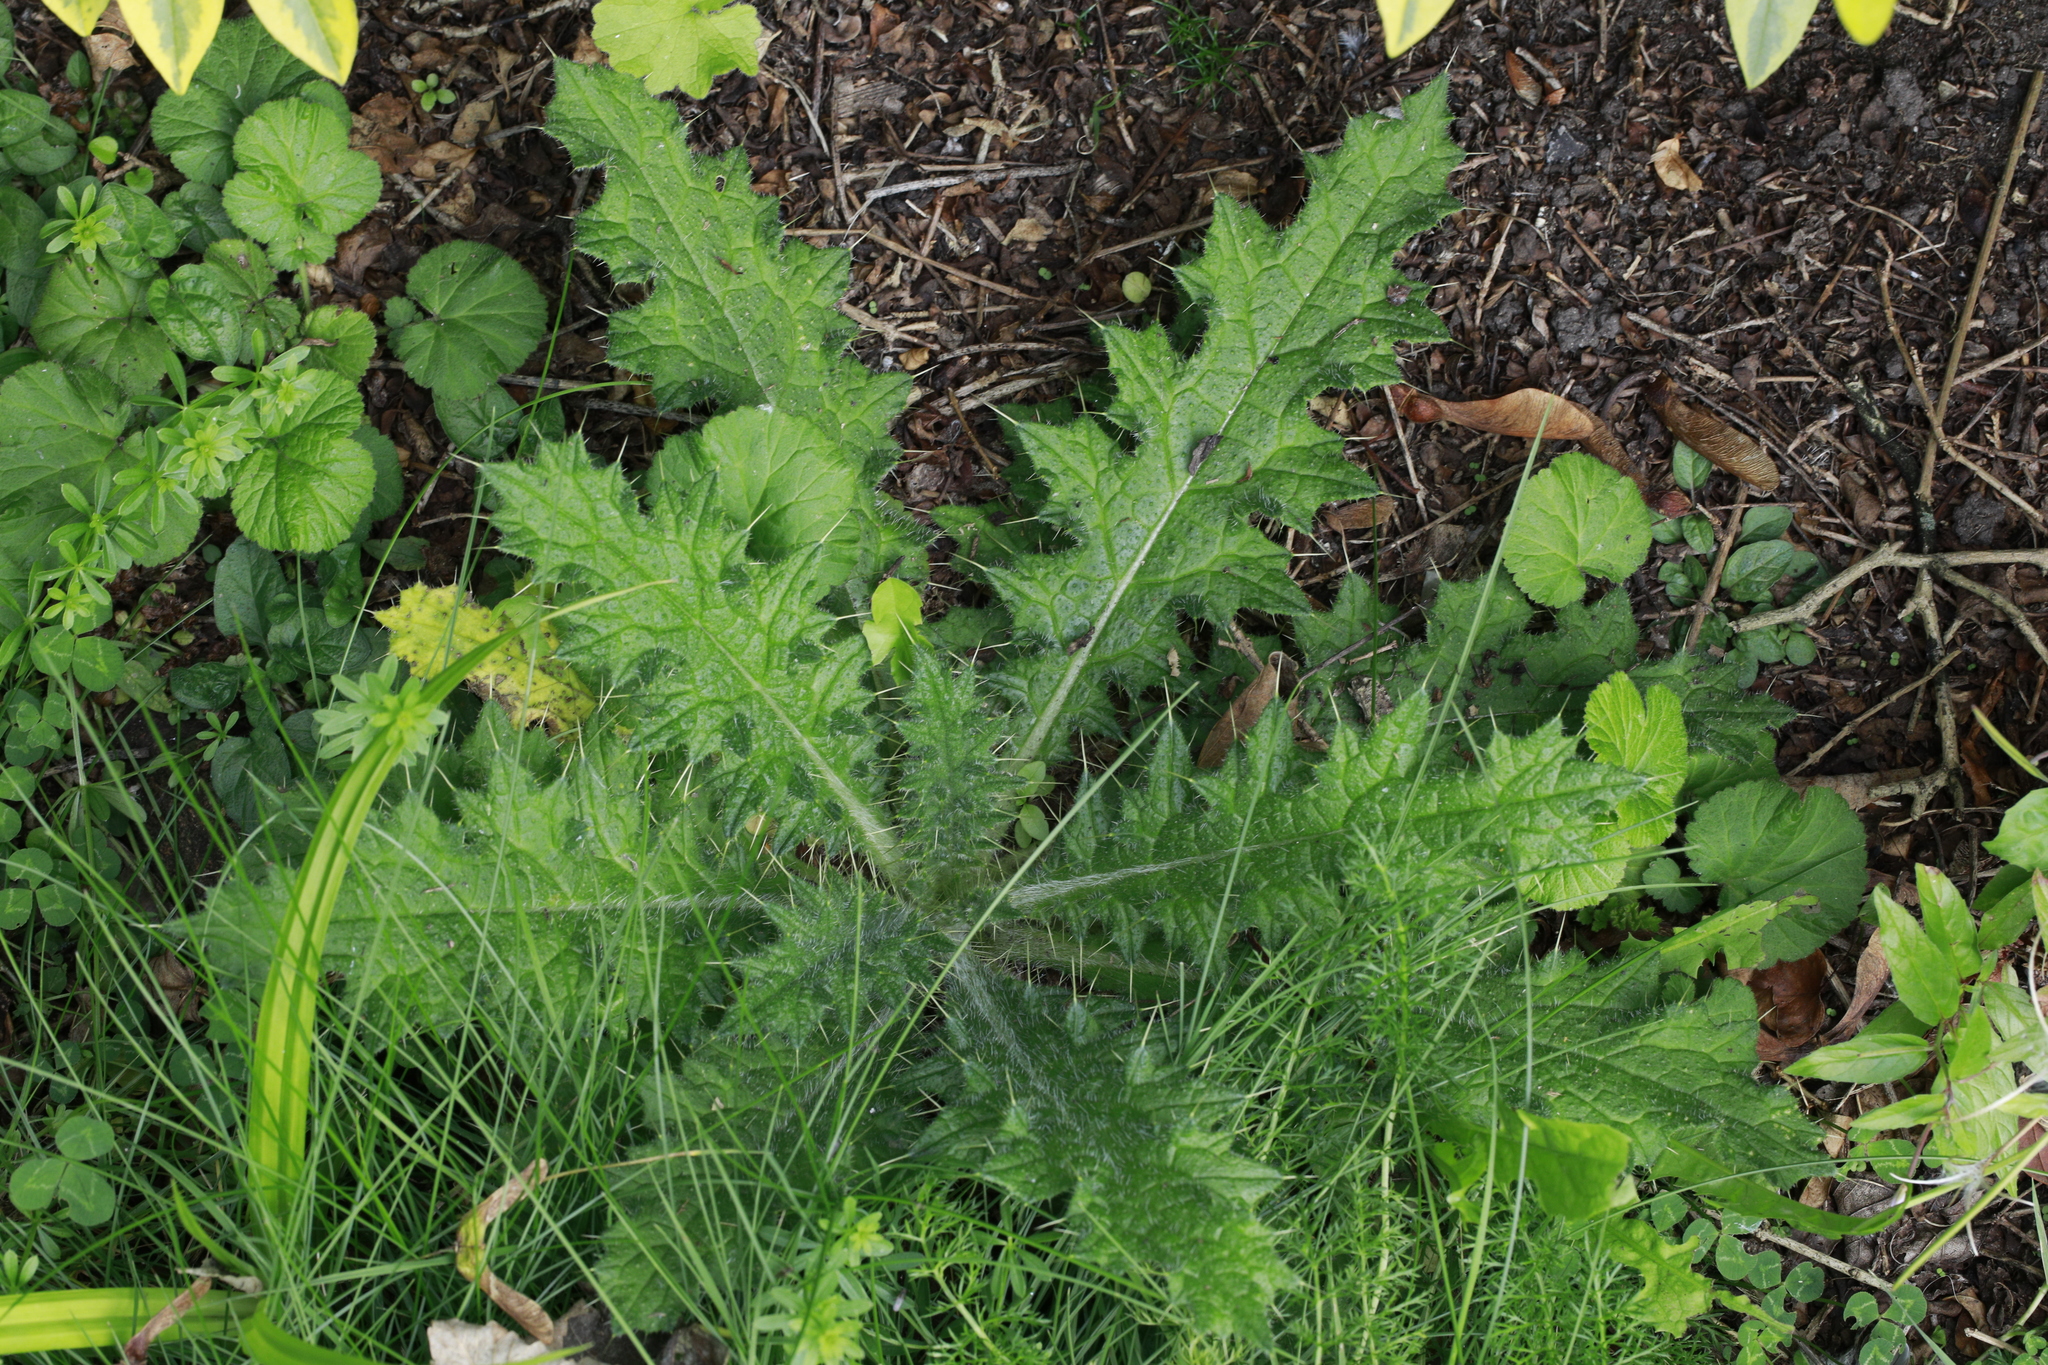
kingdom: Plantae
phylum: Tracheophyta
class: Magnoliopsida
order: Asterales
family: Asteraceae
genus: Cirsium
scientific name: Cirsium vulgare
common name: Bull thistle
